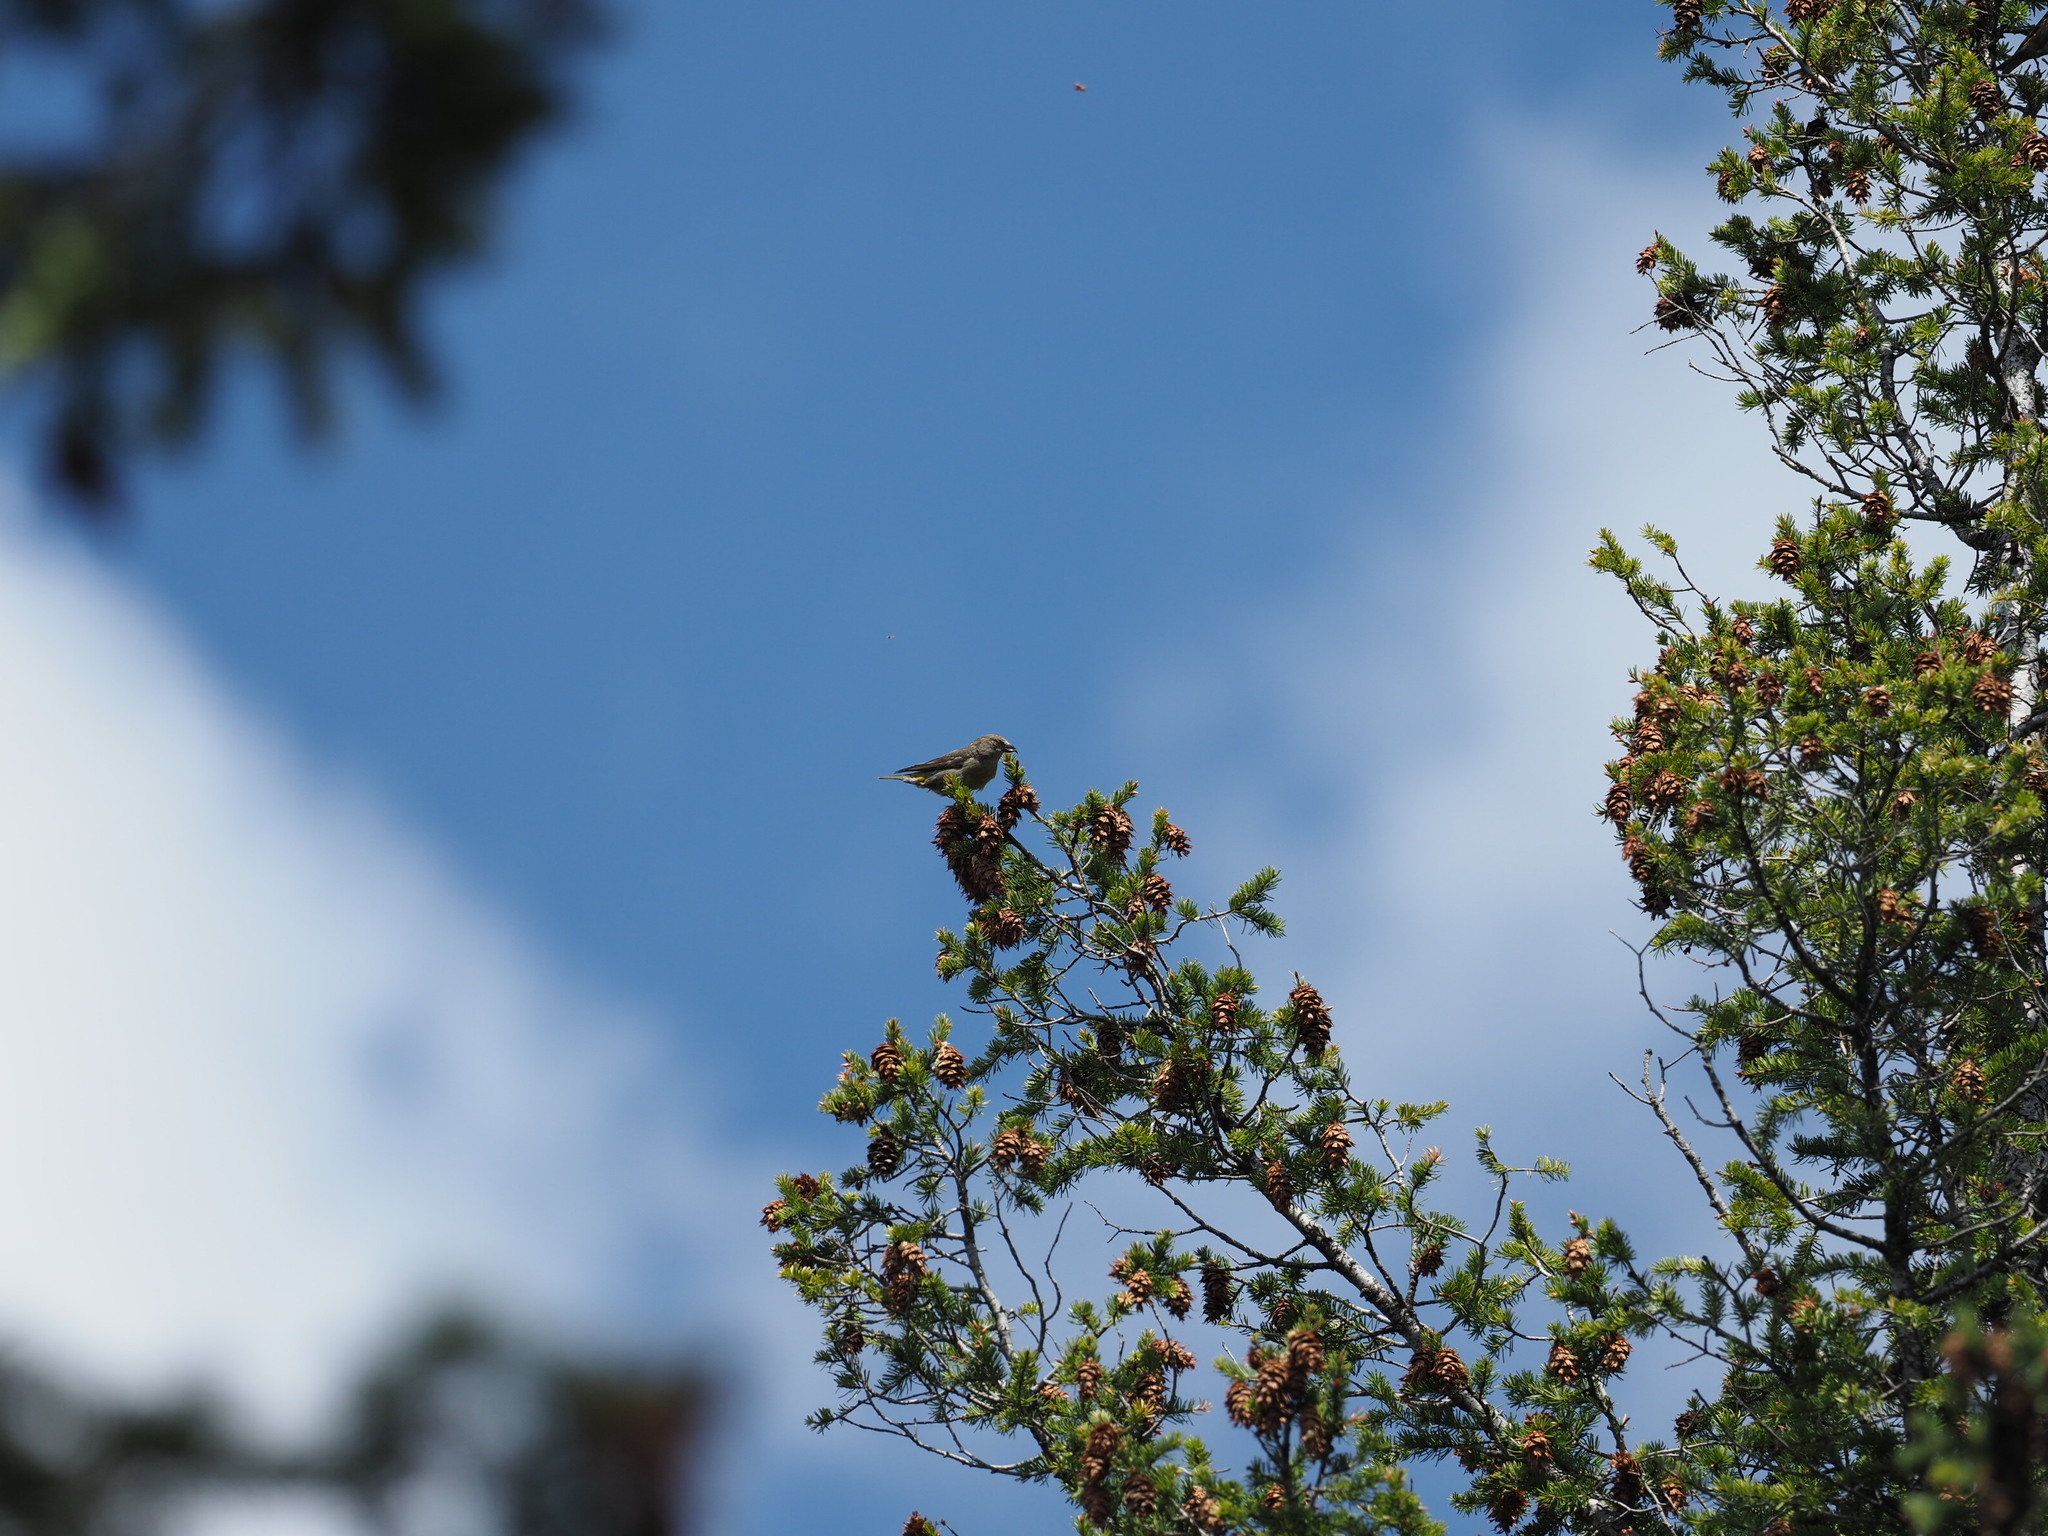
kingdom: Animalia
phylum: Chordata
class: Aves
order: Passeriformes
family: Fringillidae
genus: Loxia
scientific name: Loxia curvirostra
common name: Red crossbill
